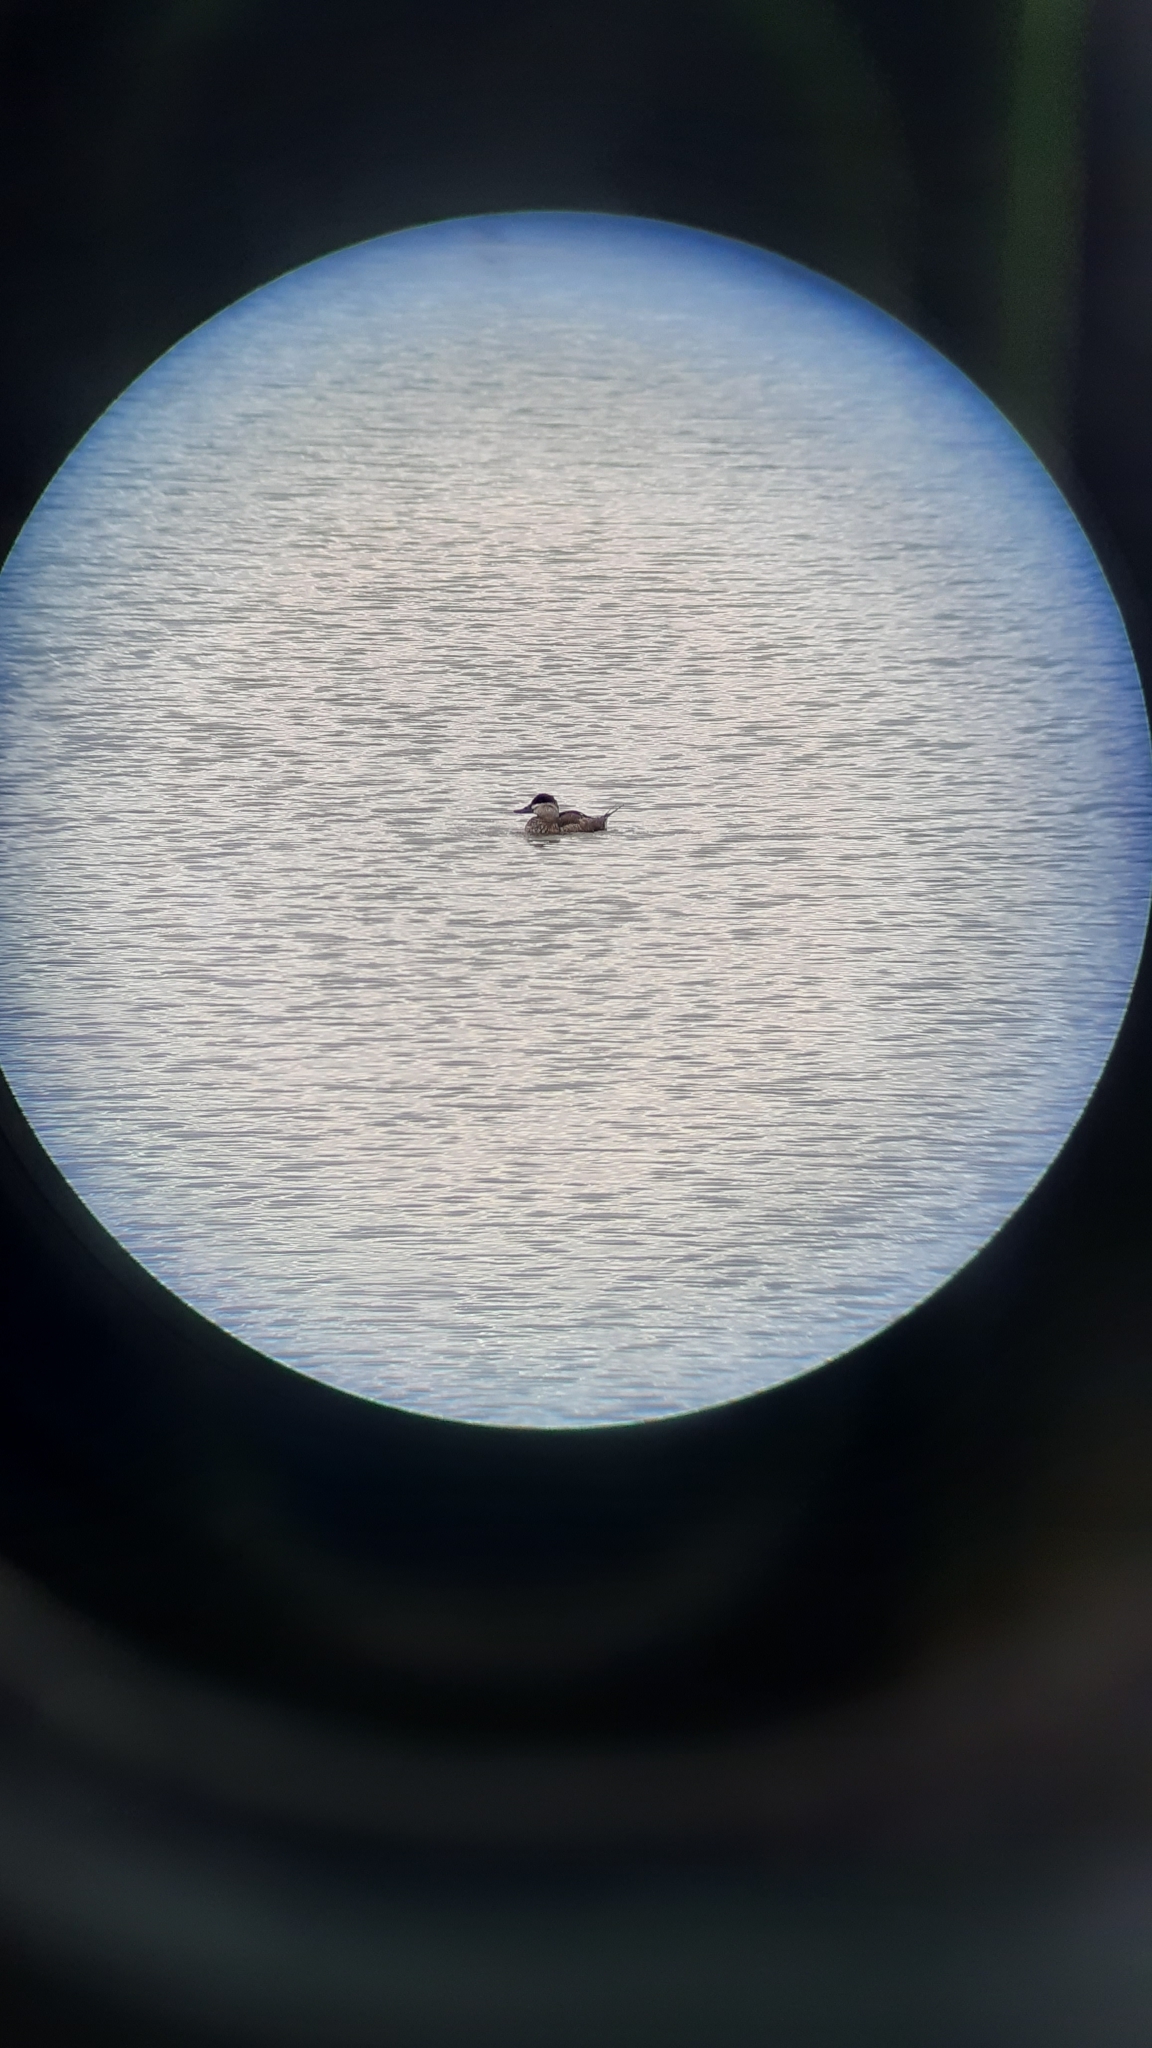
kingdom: Animalia
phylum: Chordata
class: Aves
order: Anseriformes
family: Anatidae
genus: Oxyura
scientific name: Oxyura jamaicensis
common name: Ruddy duck
